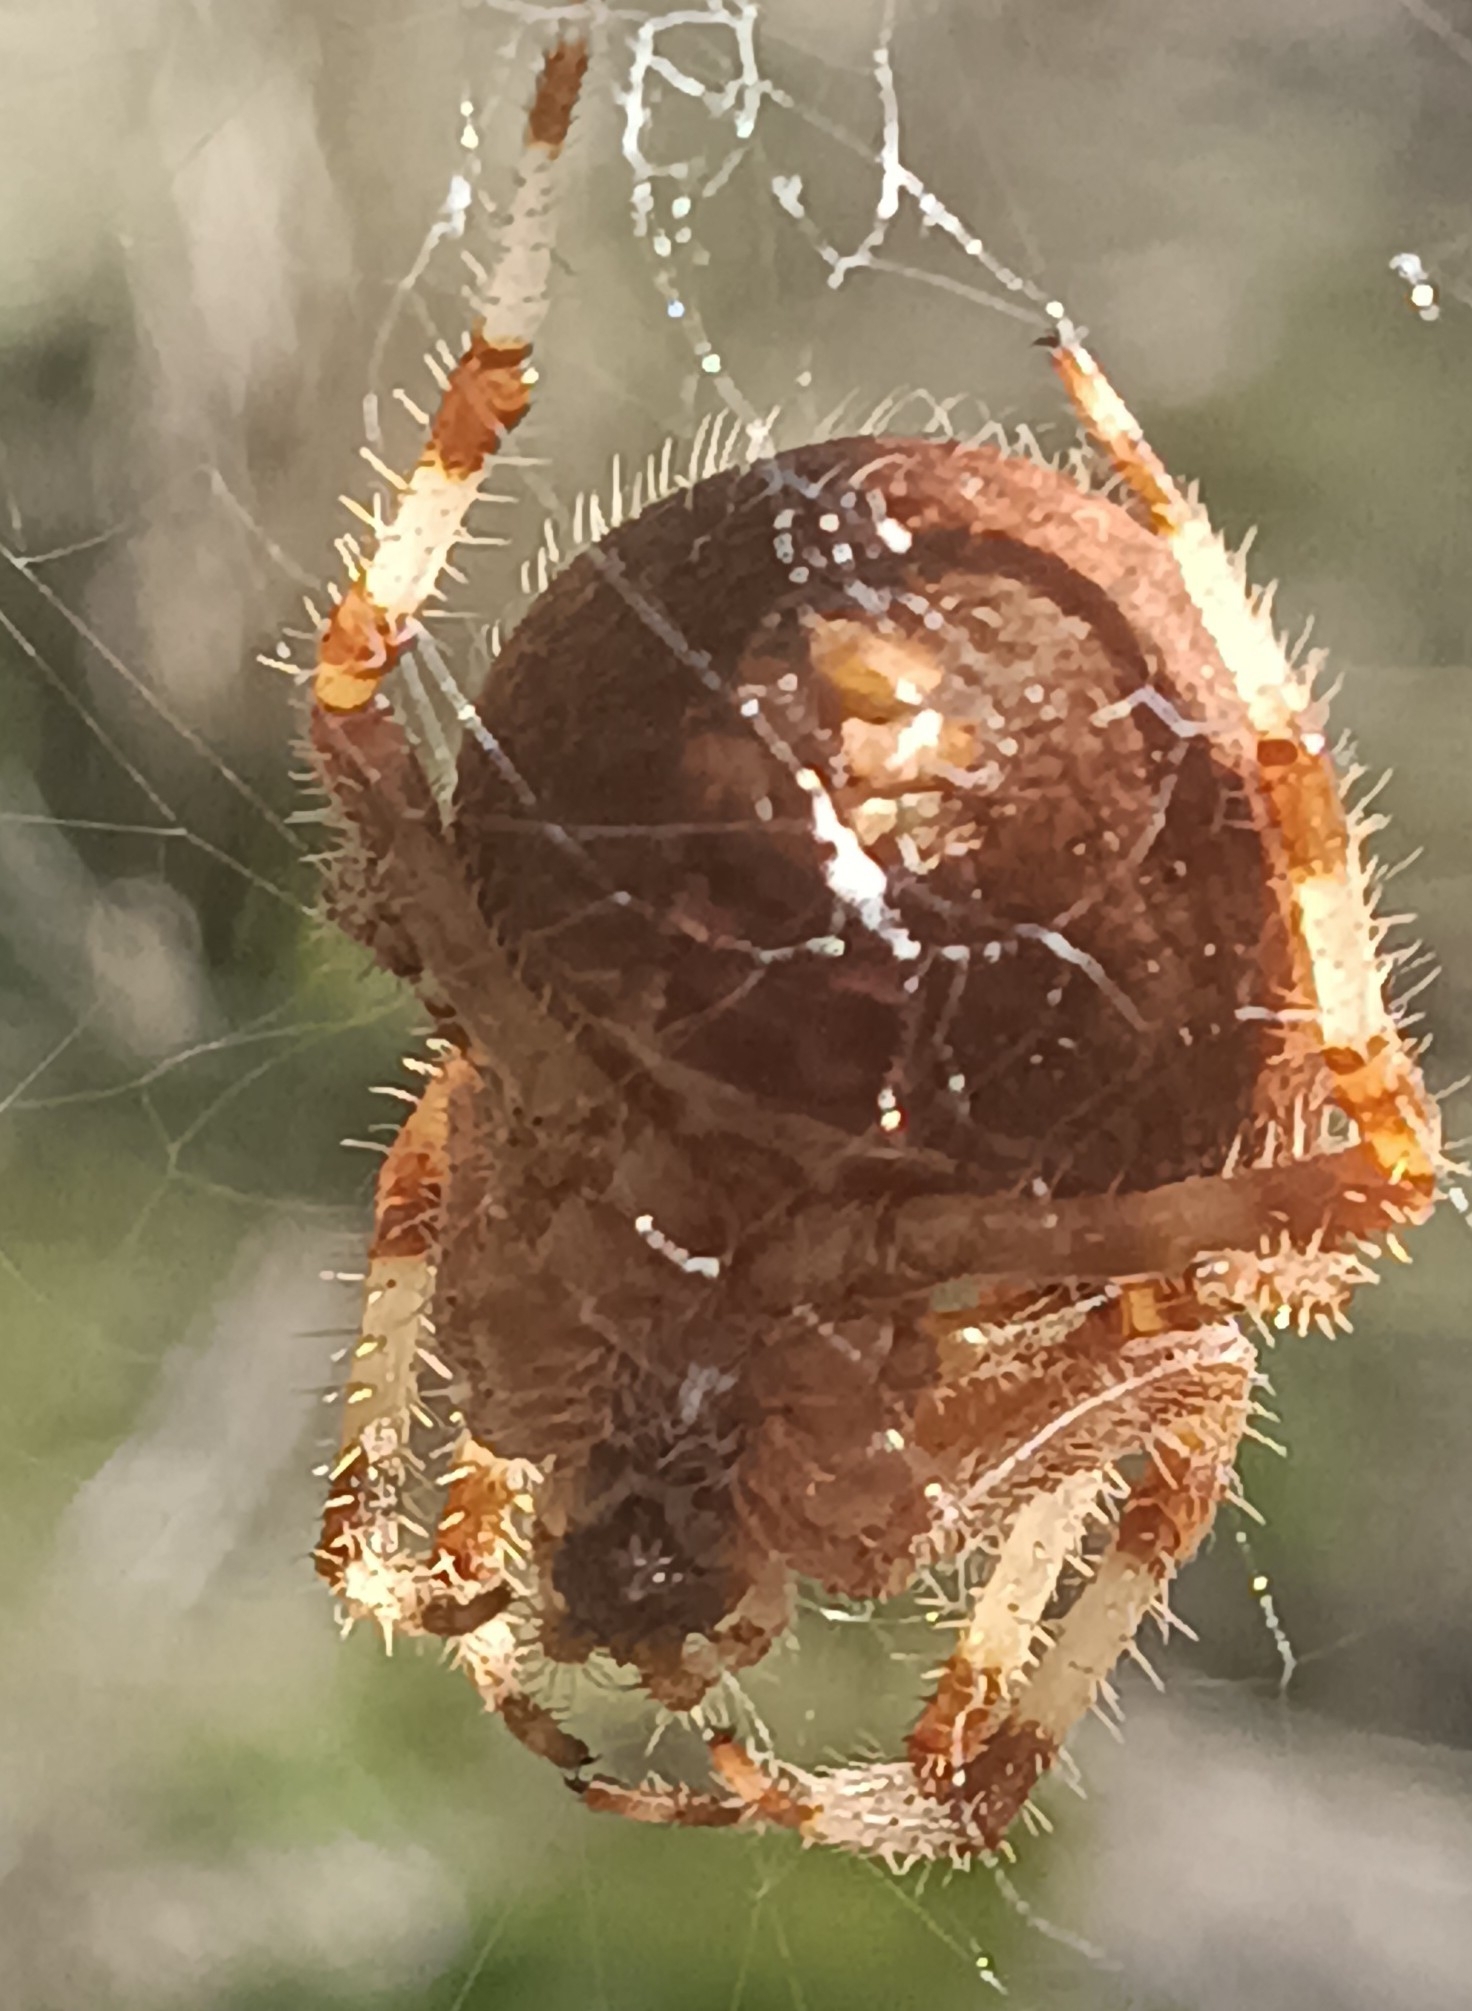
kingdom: Animalia
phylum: Arthropoda
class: Arachnida
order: Araneae
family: Araneidae
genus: Araneus
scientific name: Araneus pallidus
